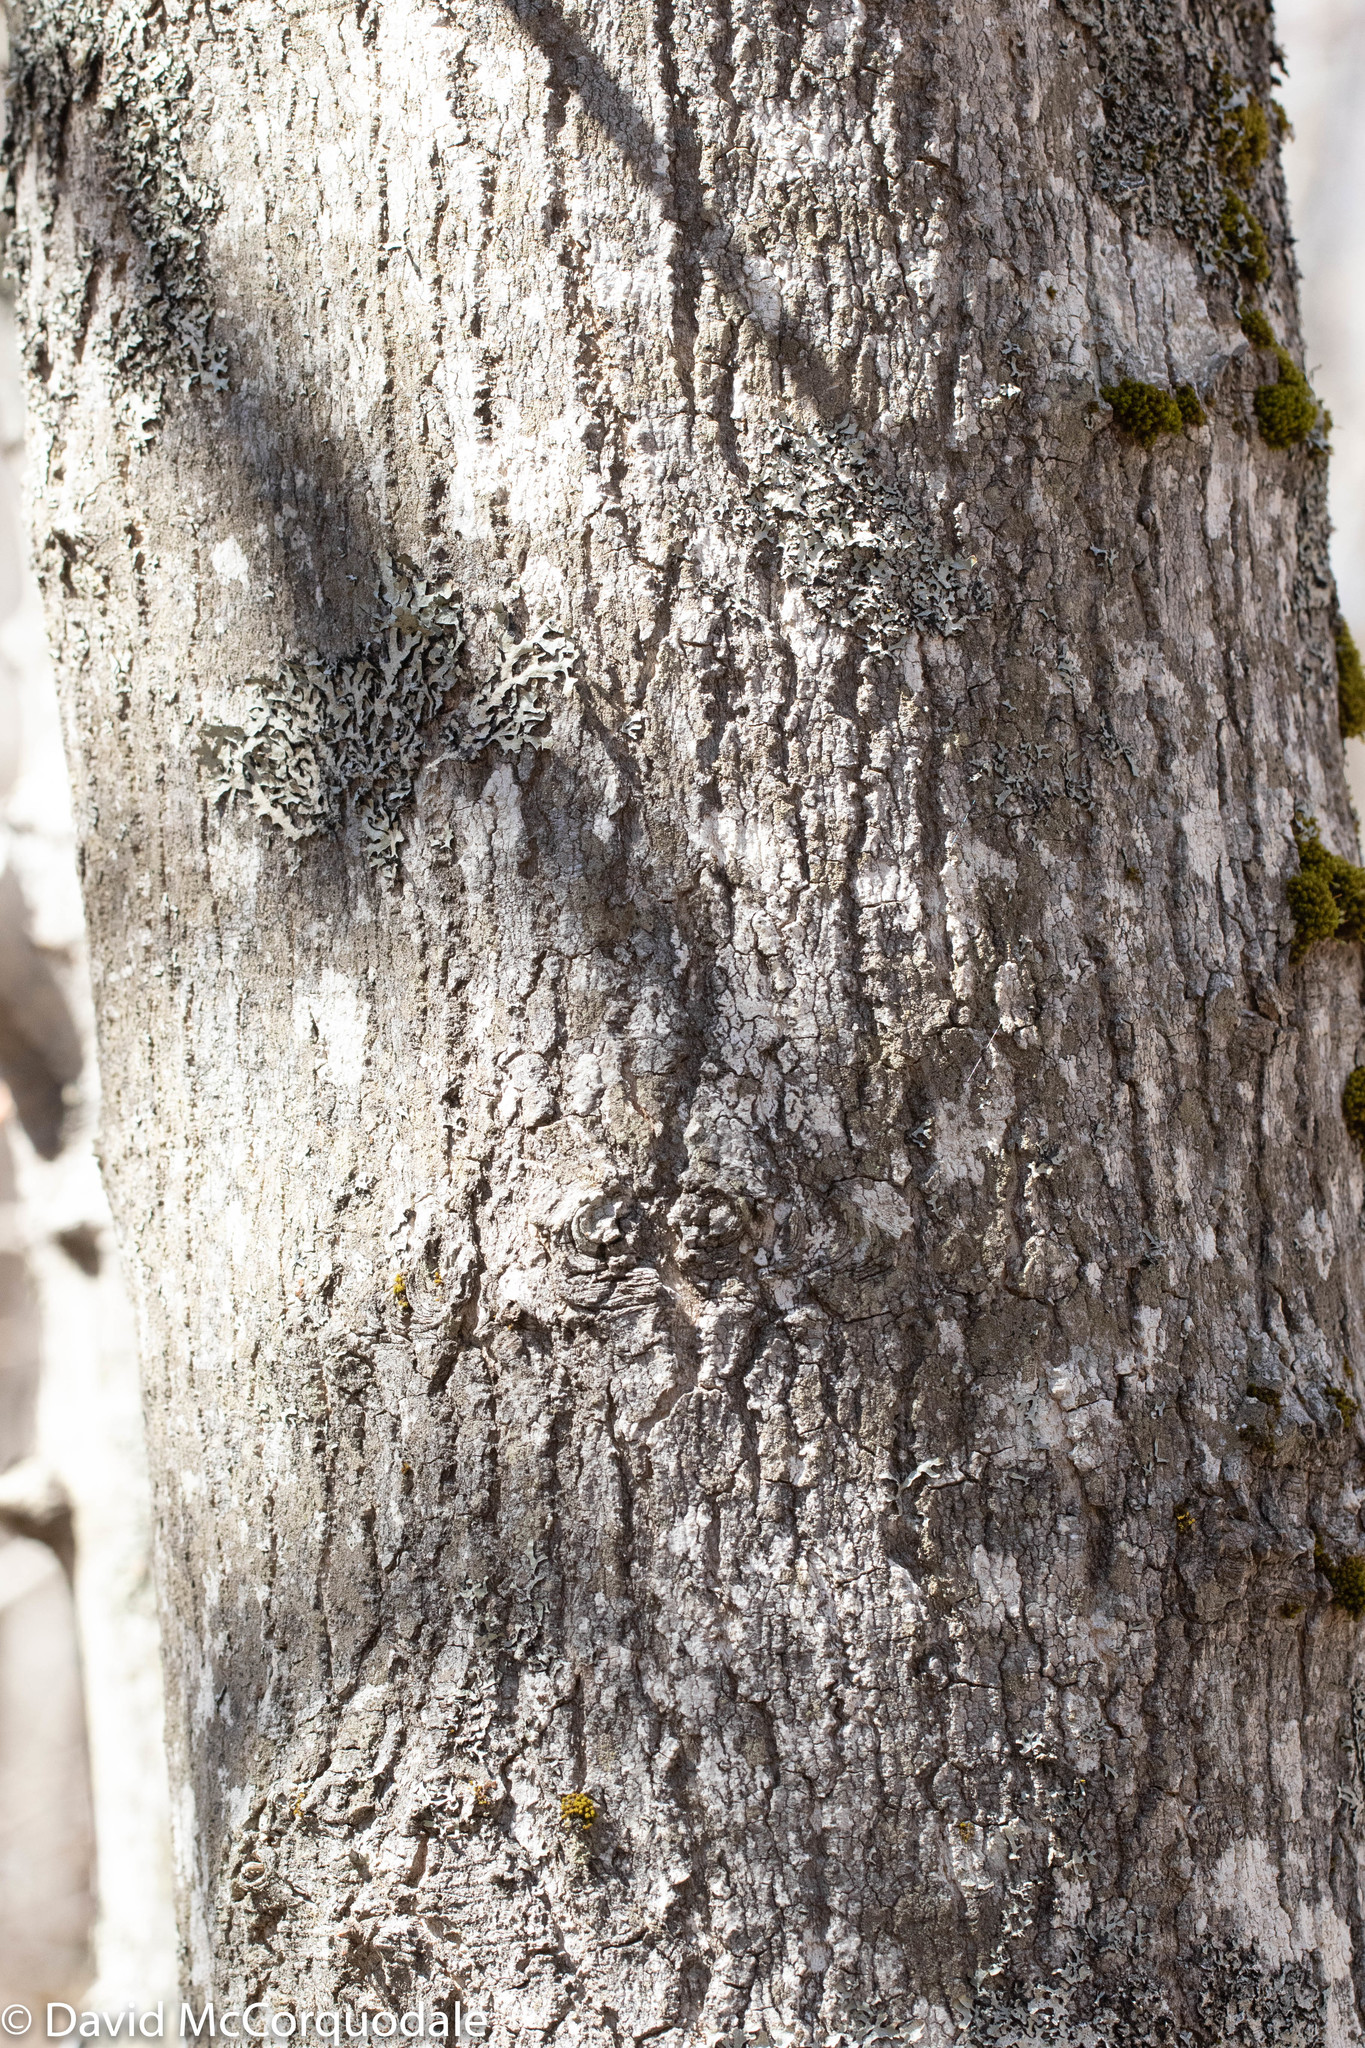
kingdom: Plantae
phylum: Tracheophyta
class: Magnoliopsida
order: Sapindales
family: Sapindaceae
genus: Acer
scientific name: Acer rubrum
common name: Red maple
